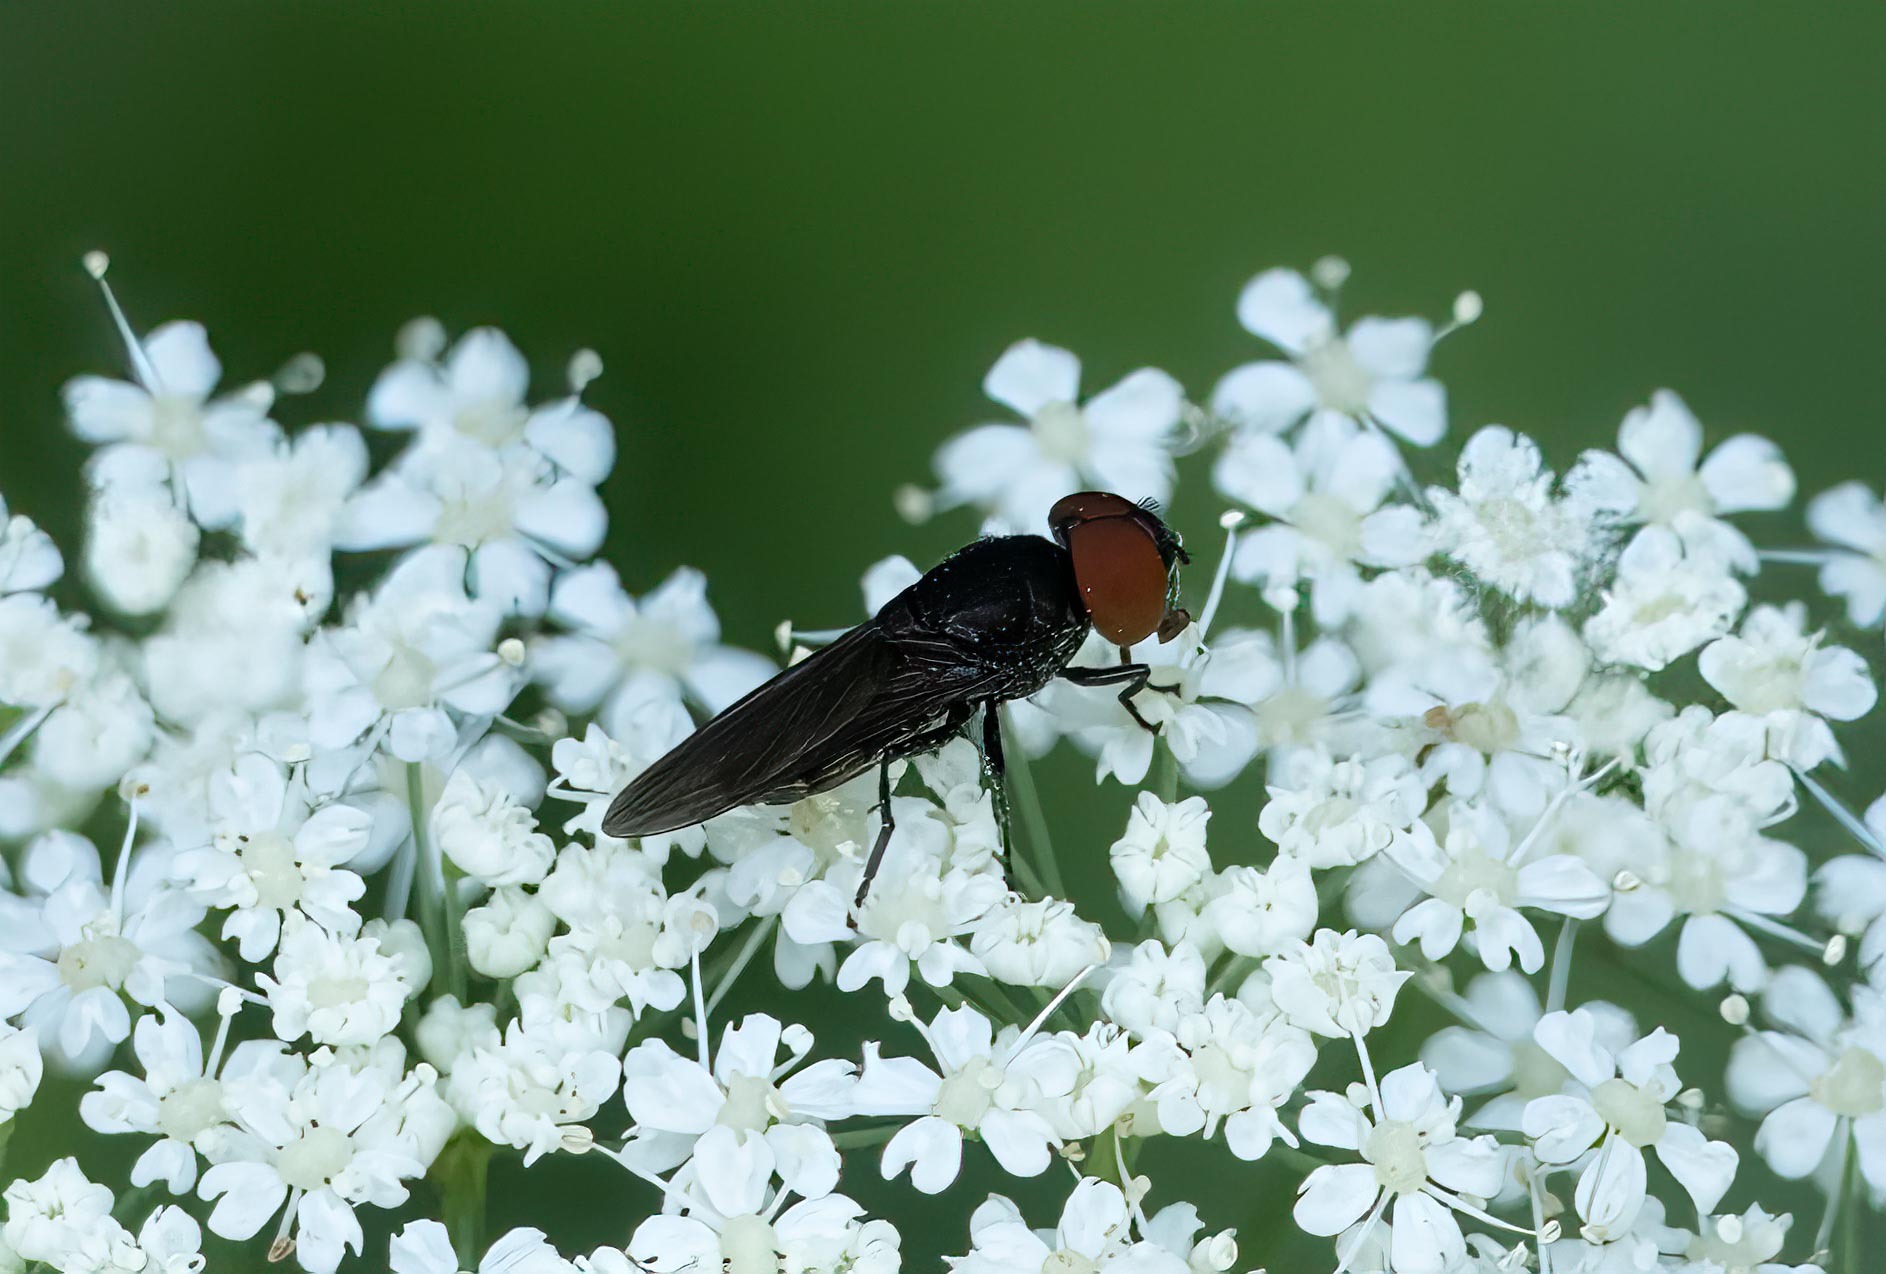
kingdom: Animalia
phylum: Arthropoda
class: Insecta
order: Diptera
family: Syrphidae
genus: Chrysogaster
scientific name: Chrysogaster solstitialis
